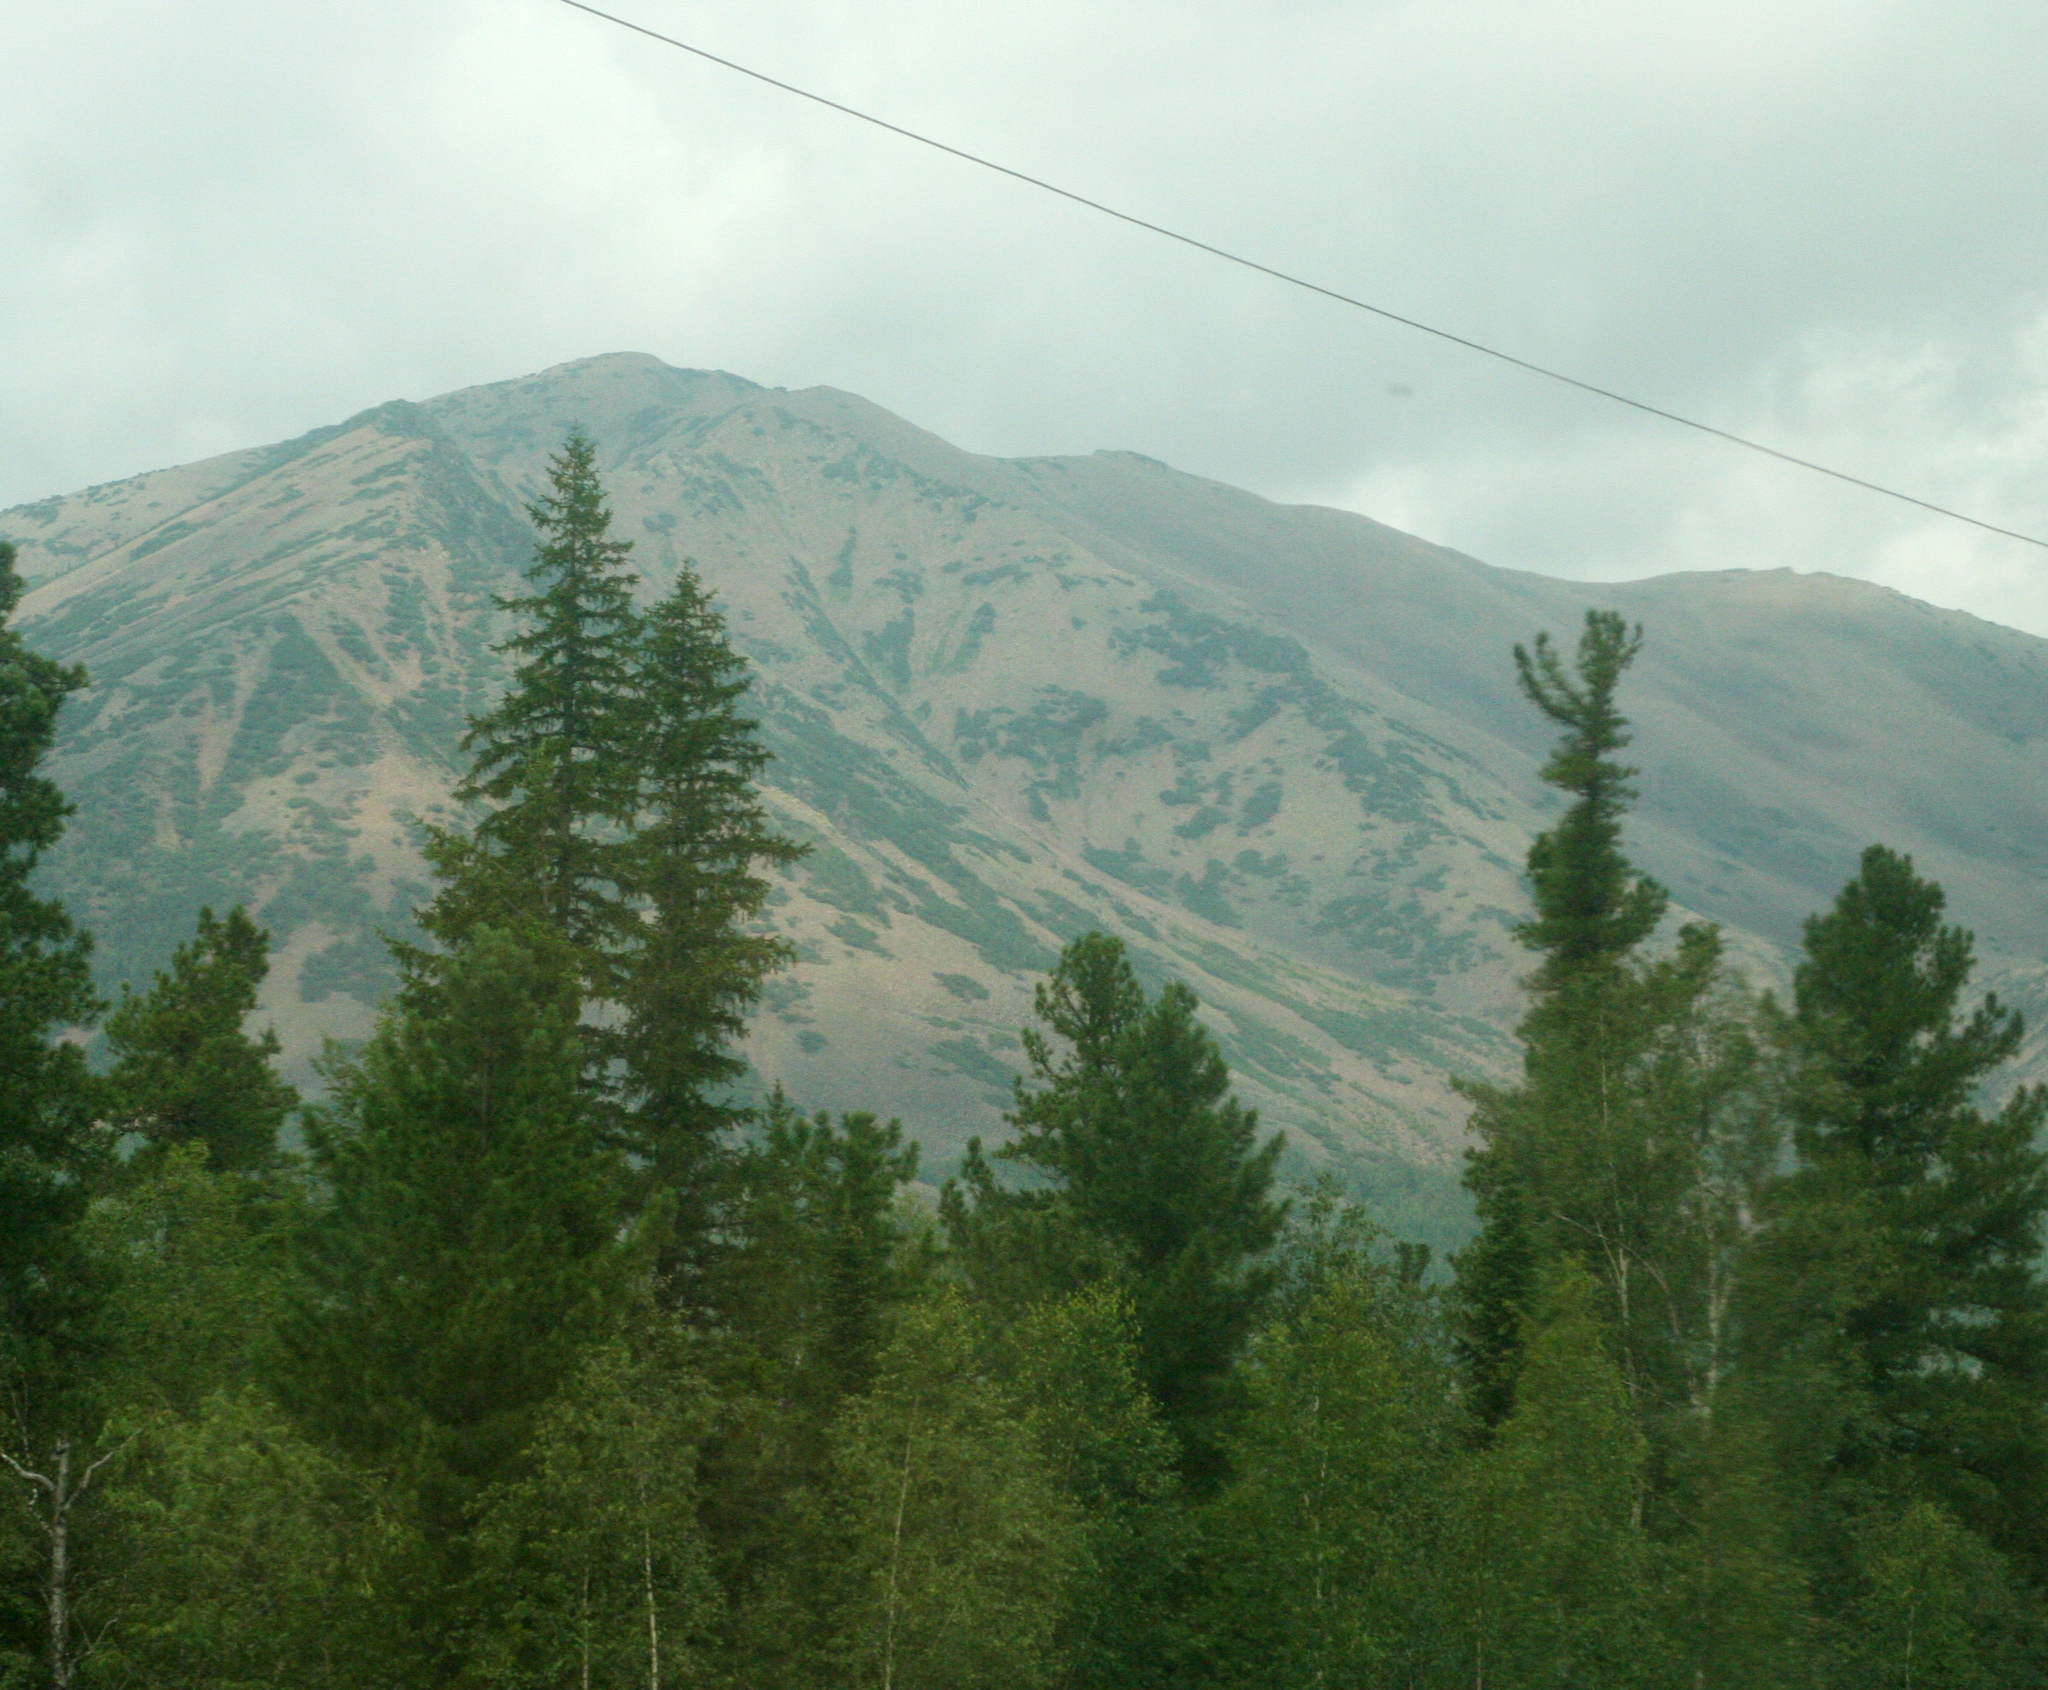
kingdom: Plantae
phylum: Tracheophyta
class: Pinopsida
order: Pinales
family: Pinaceae
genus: Picea
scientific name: Picea obovata
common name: Siberian spruce
